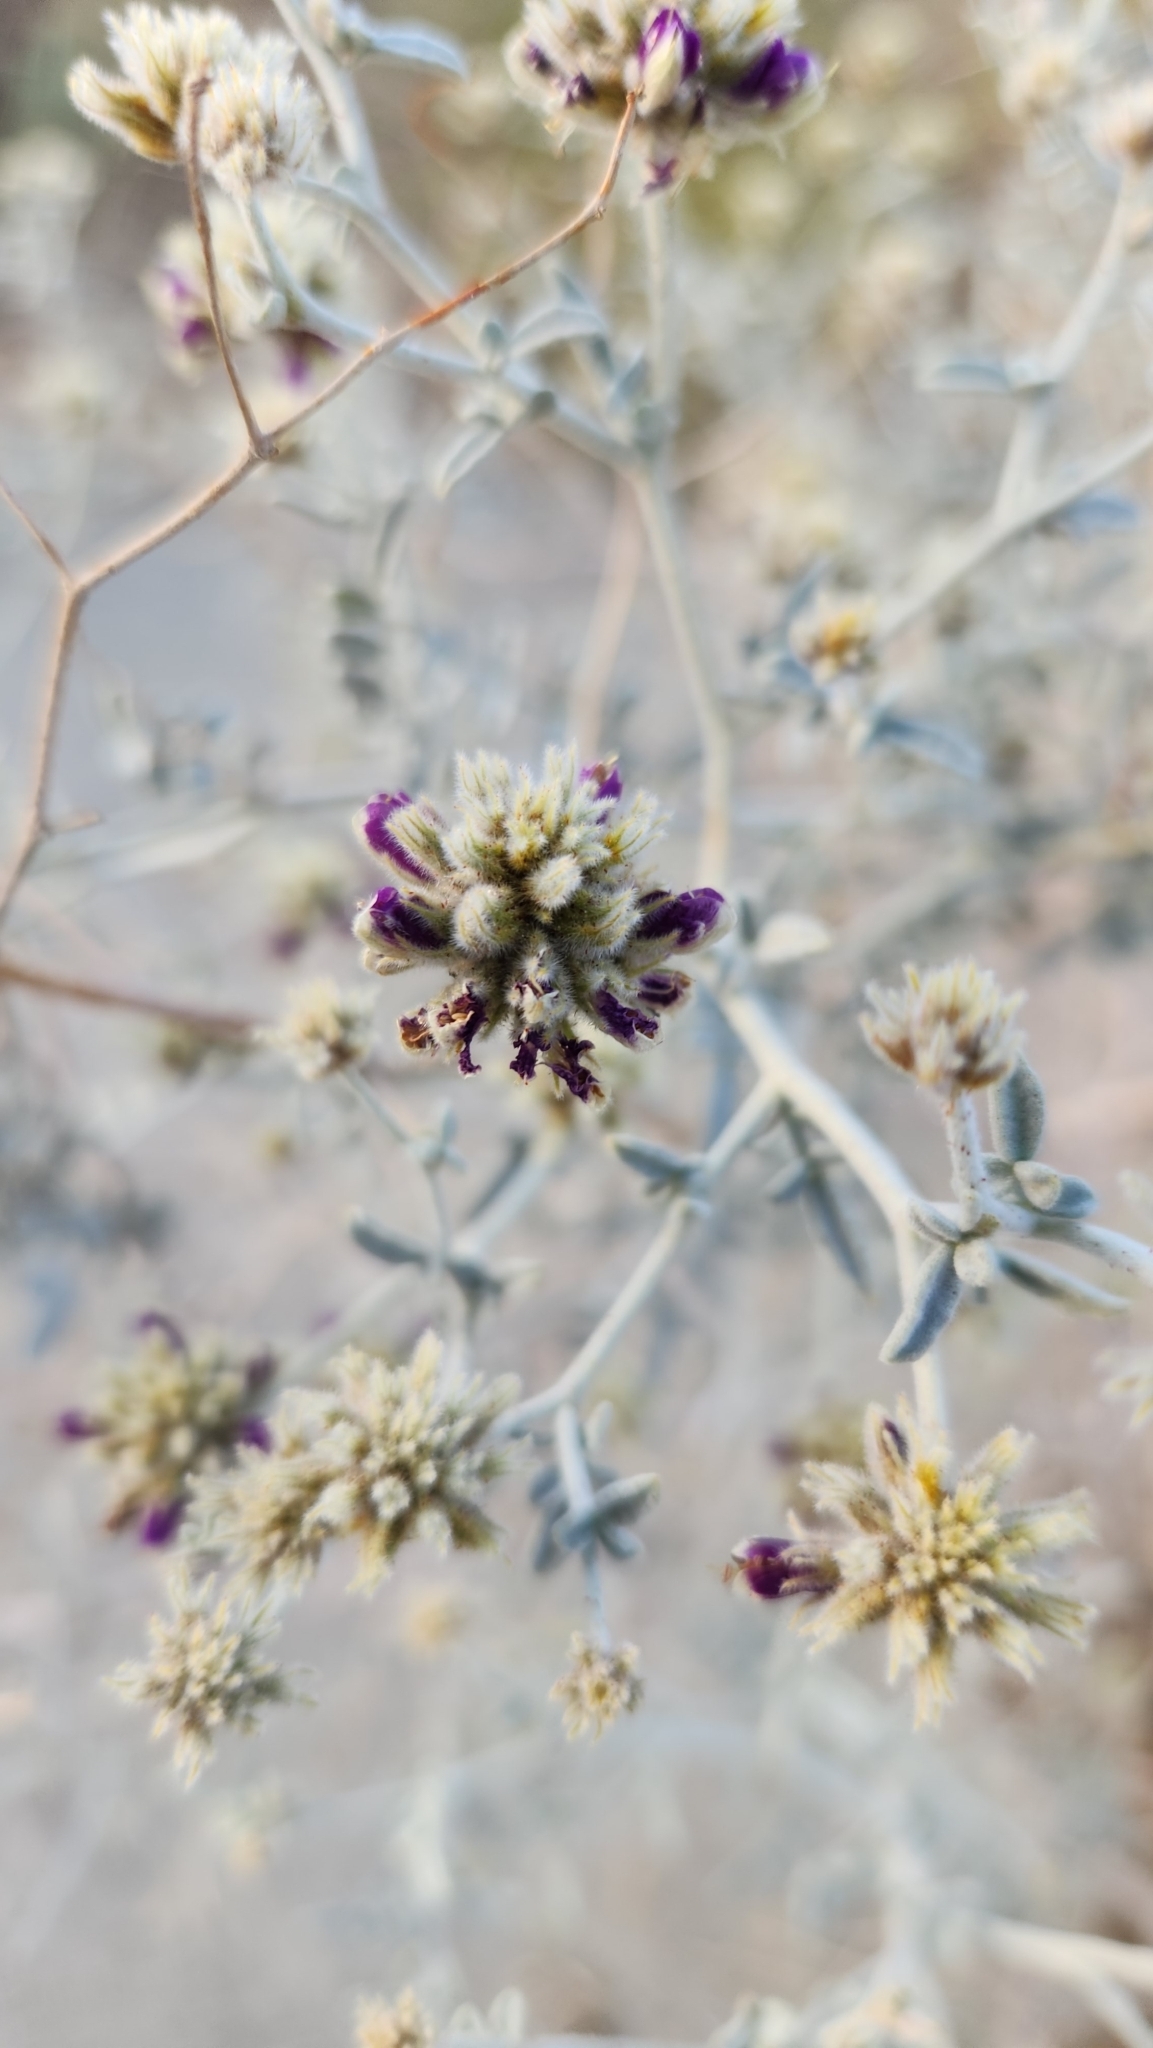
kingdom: Plantae
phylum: Tracheophyta
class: Magnoliopsida
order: Fabales
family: Fabaceae
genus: Psorothamnus
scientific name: Psorothamnus emoryi
